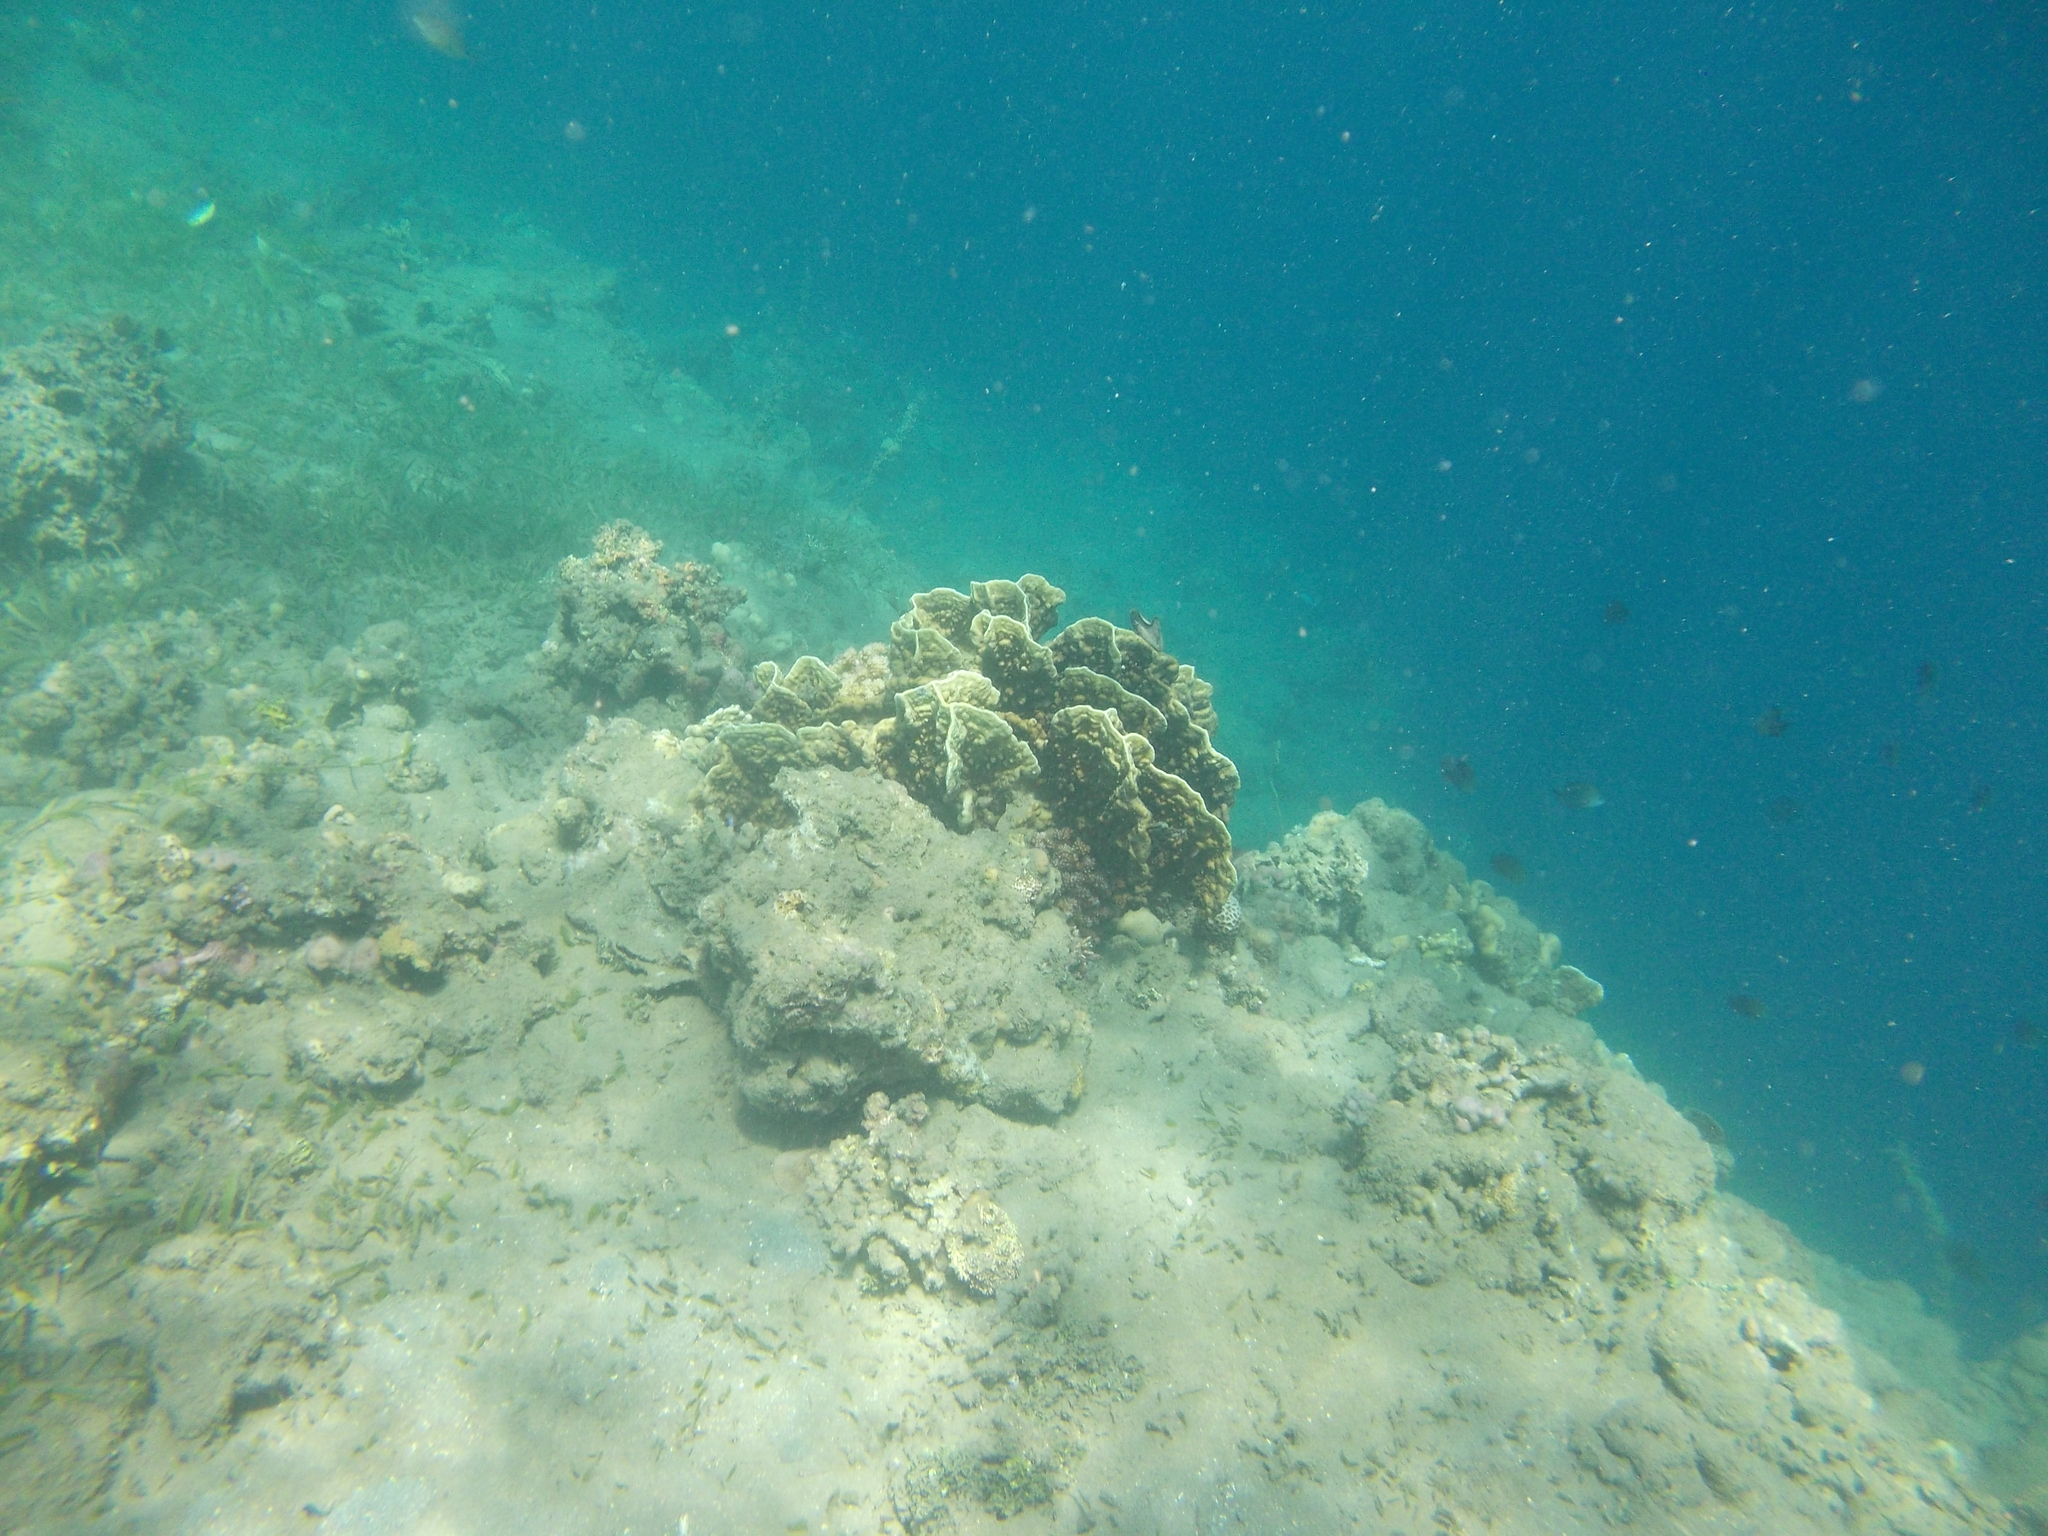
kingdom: Animalia
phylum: Cnidaria
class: Hydrozoa
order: Anthoathecata
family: Milleporidae
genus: Millepora
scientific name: Millepora platyphylla
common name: Sheet fire coral
